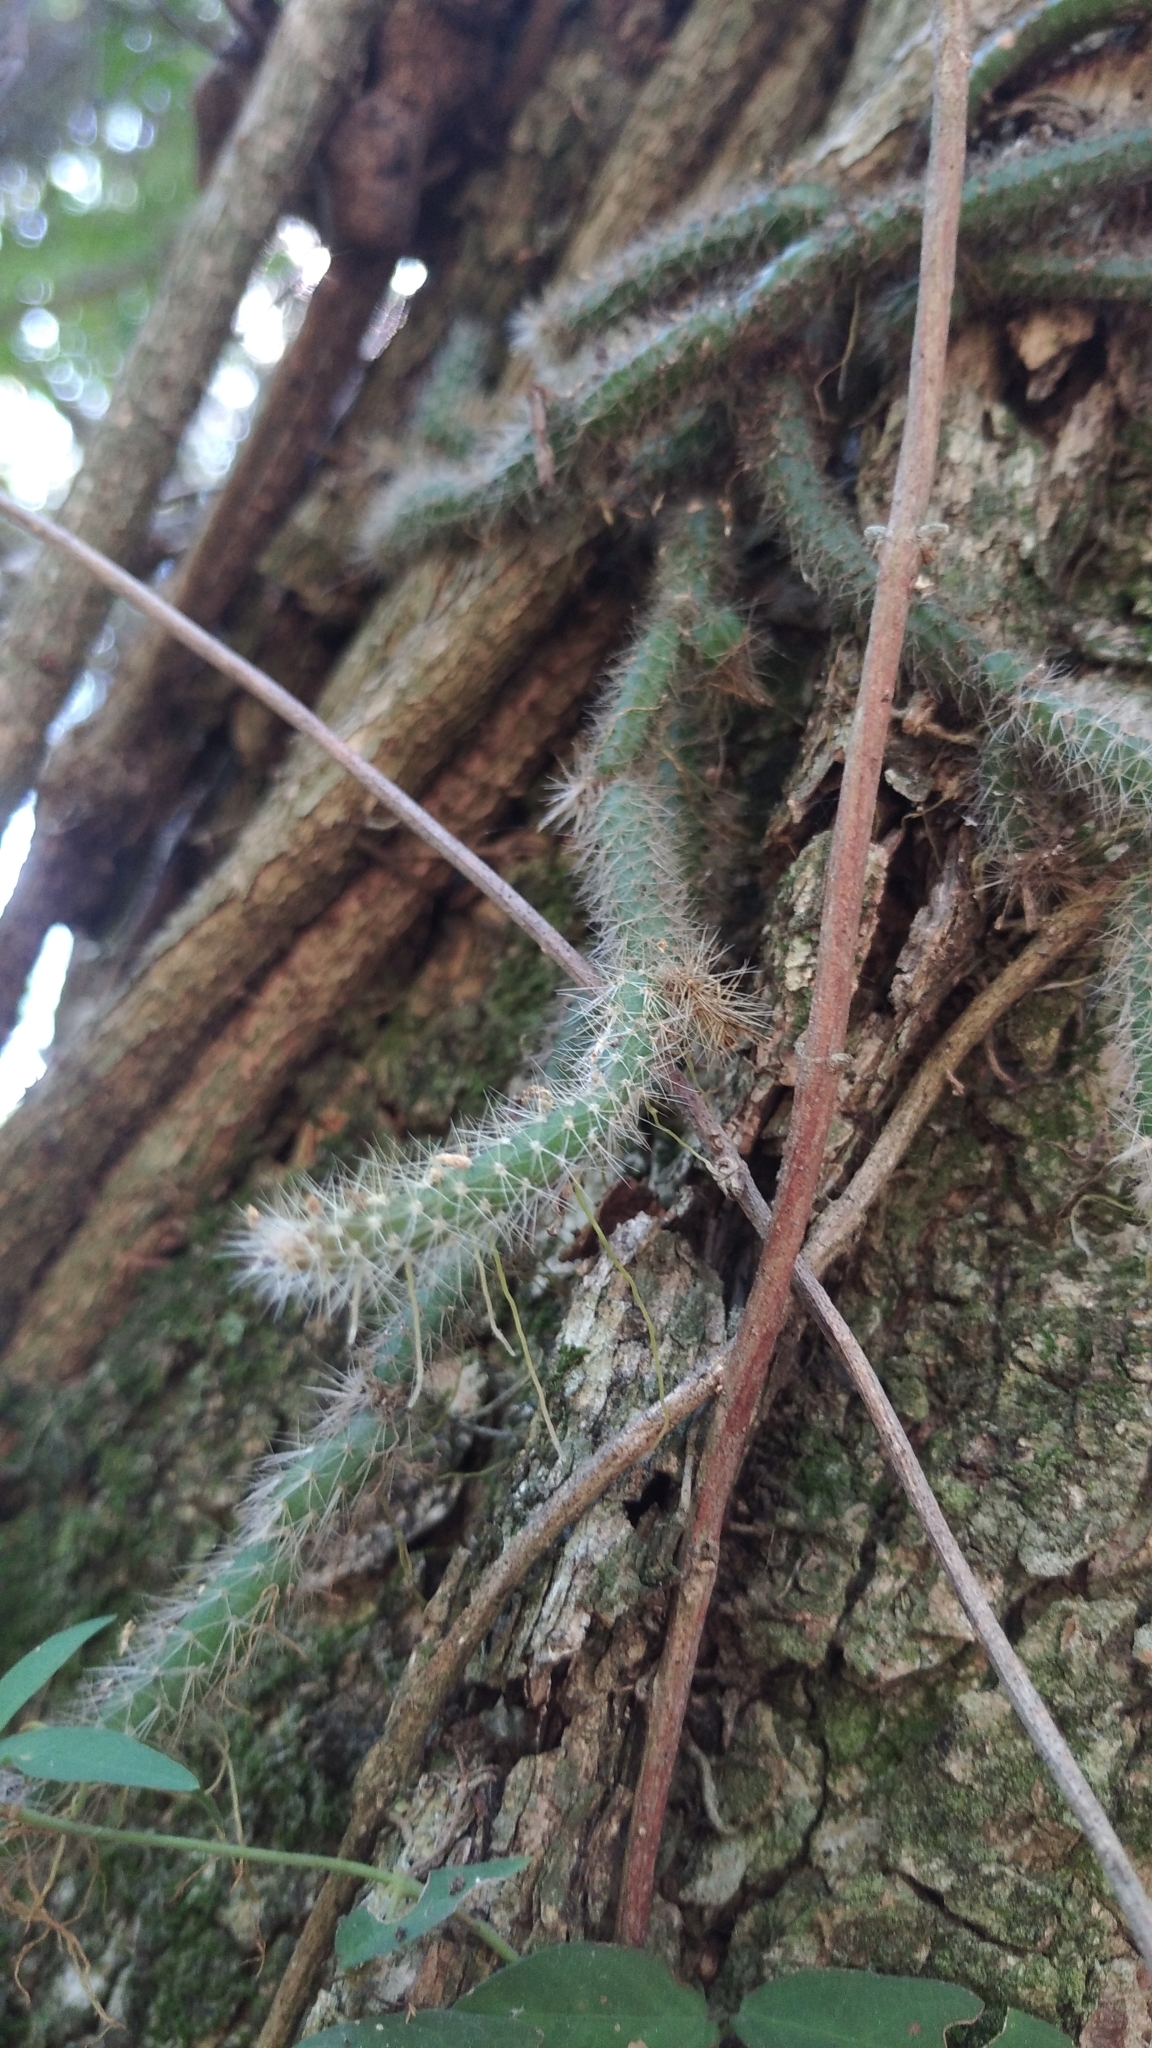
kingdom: Plantae
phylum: Tracheophyta
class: Magnoliopsida
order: Caryophyllales
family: Cactaceae
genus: Lepismium
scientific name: Lepismium lumbricoides
